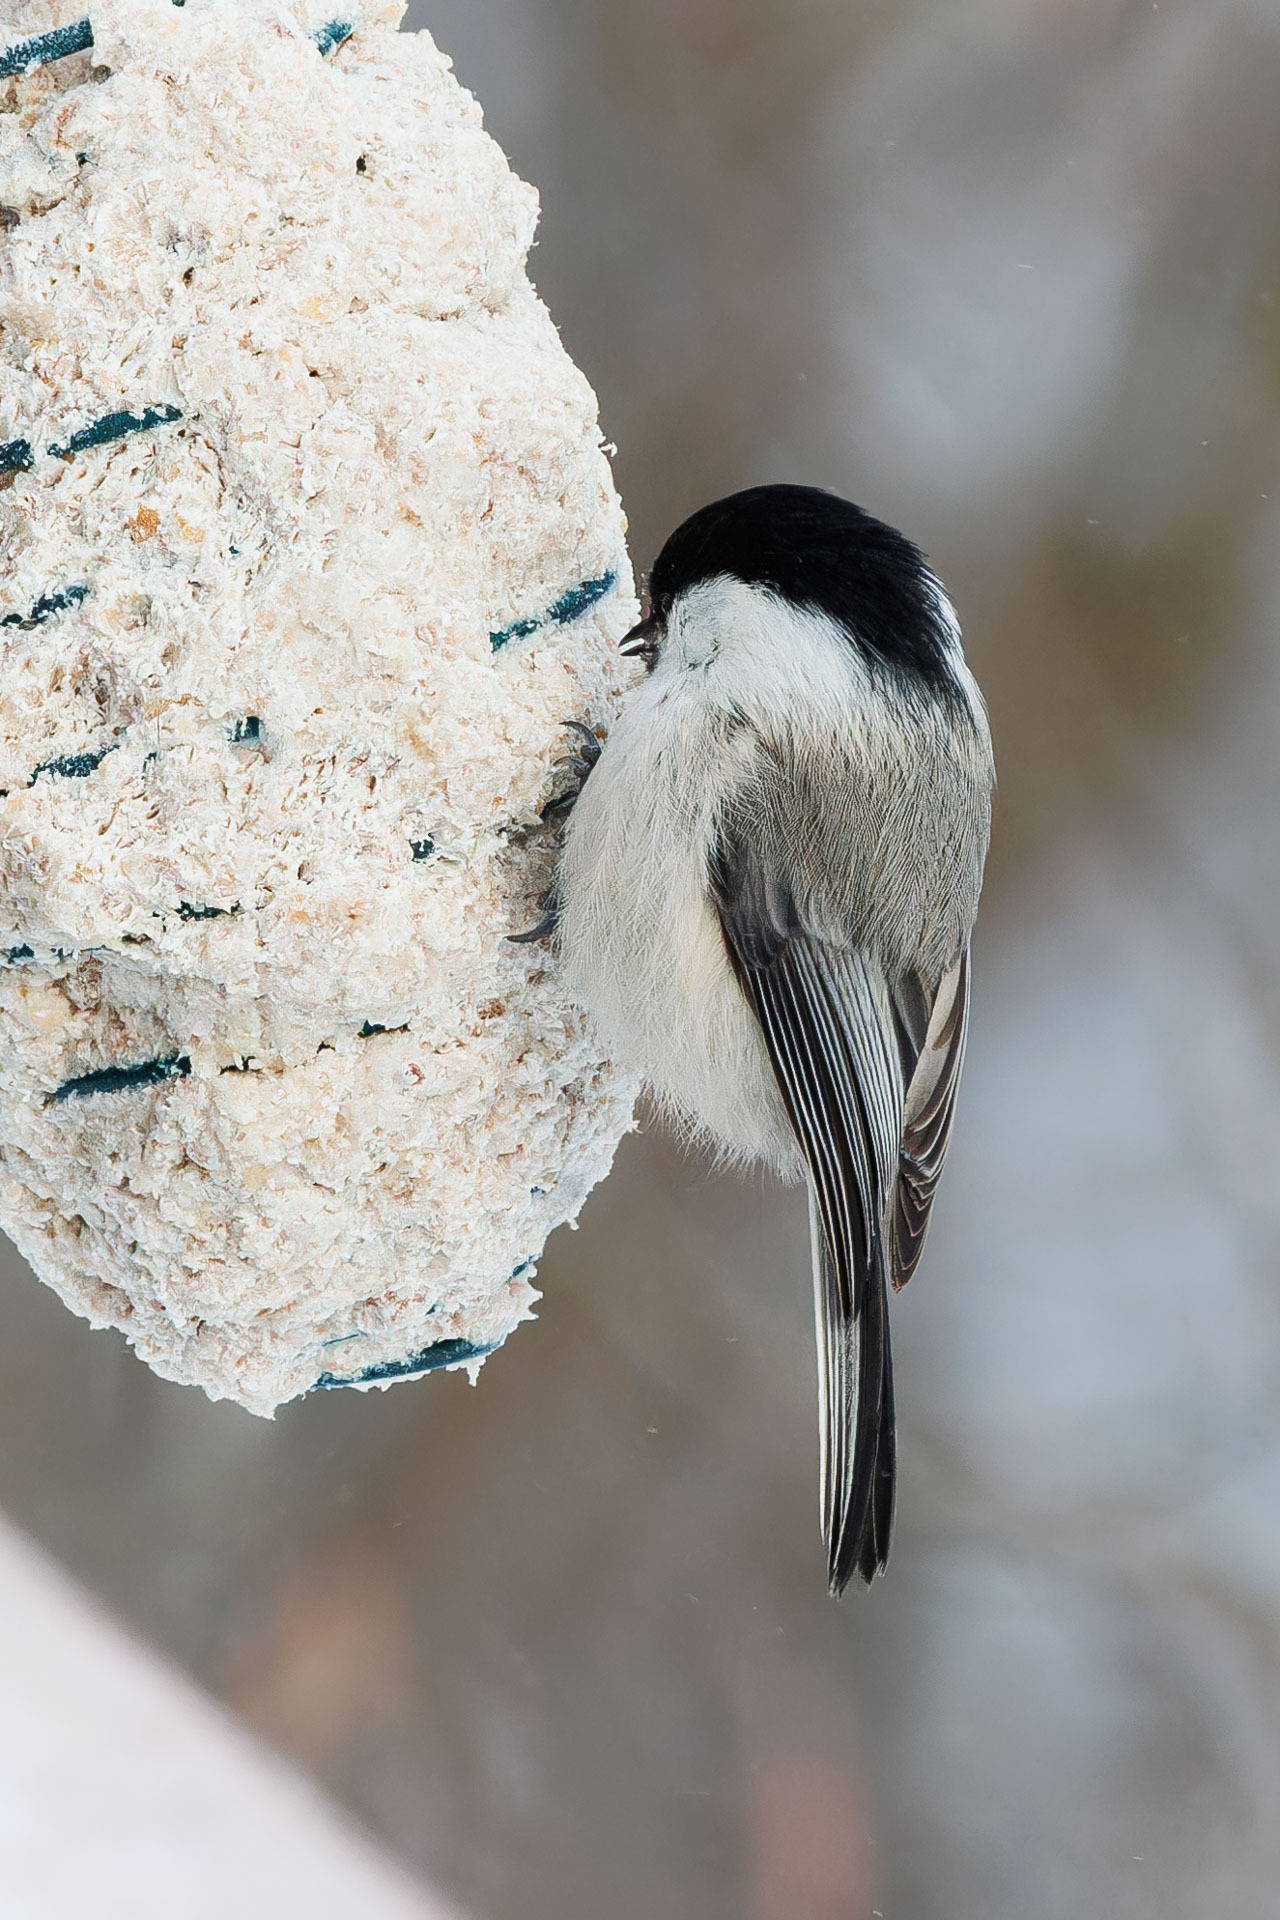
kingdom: Animalia
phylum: Chordata
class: Aves
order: Passeriformes
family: Paridae
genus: Poecile
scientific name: Poecile montanus
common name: Willow tit
